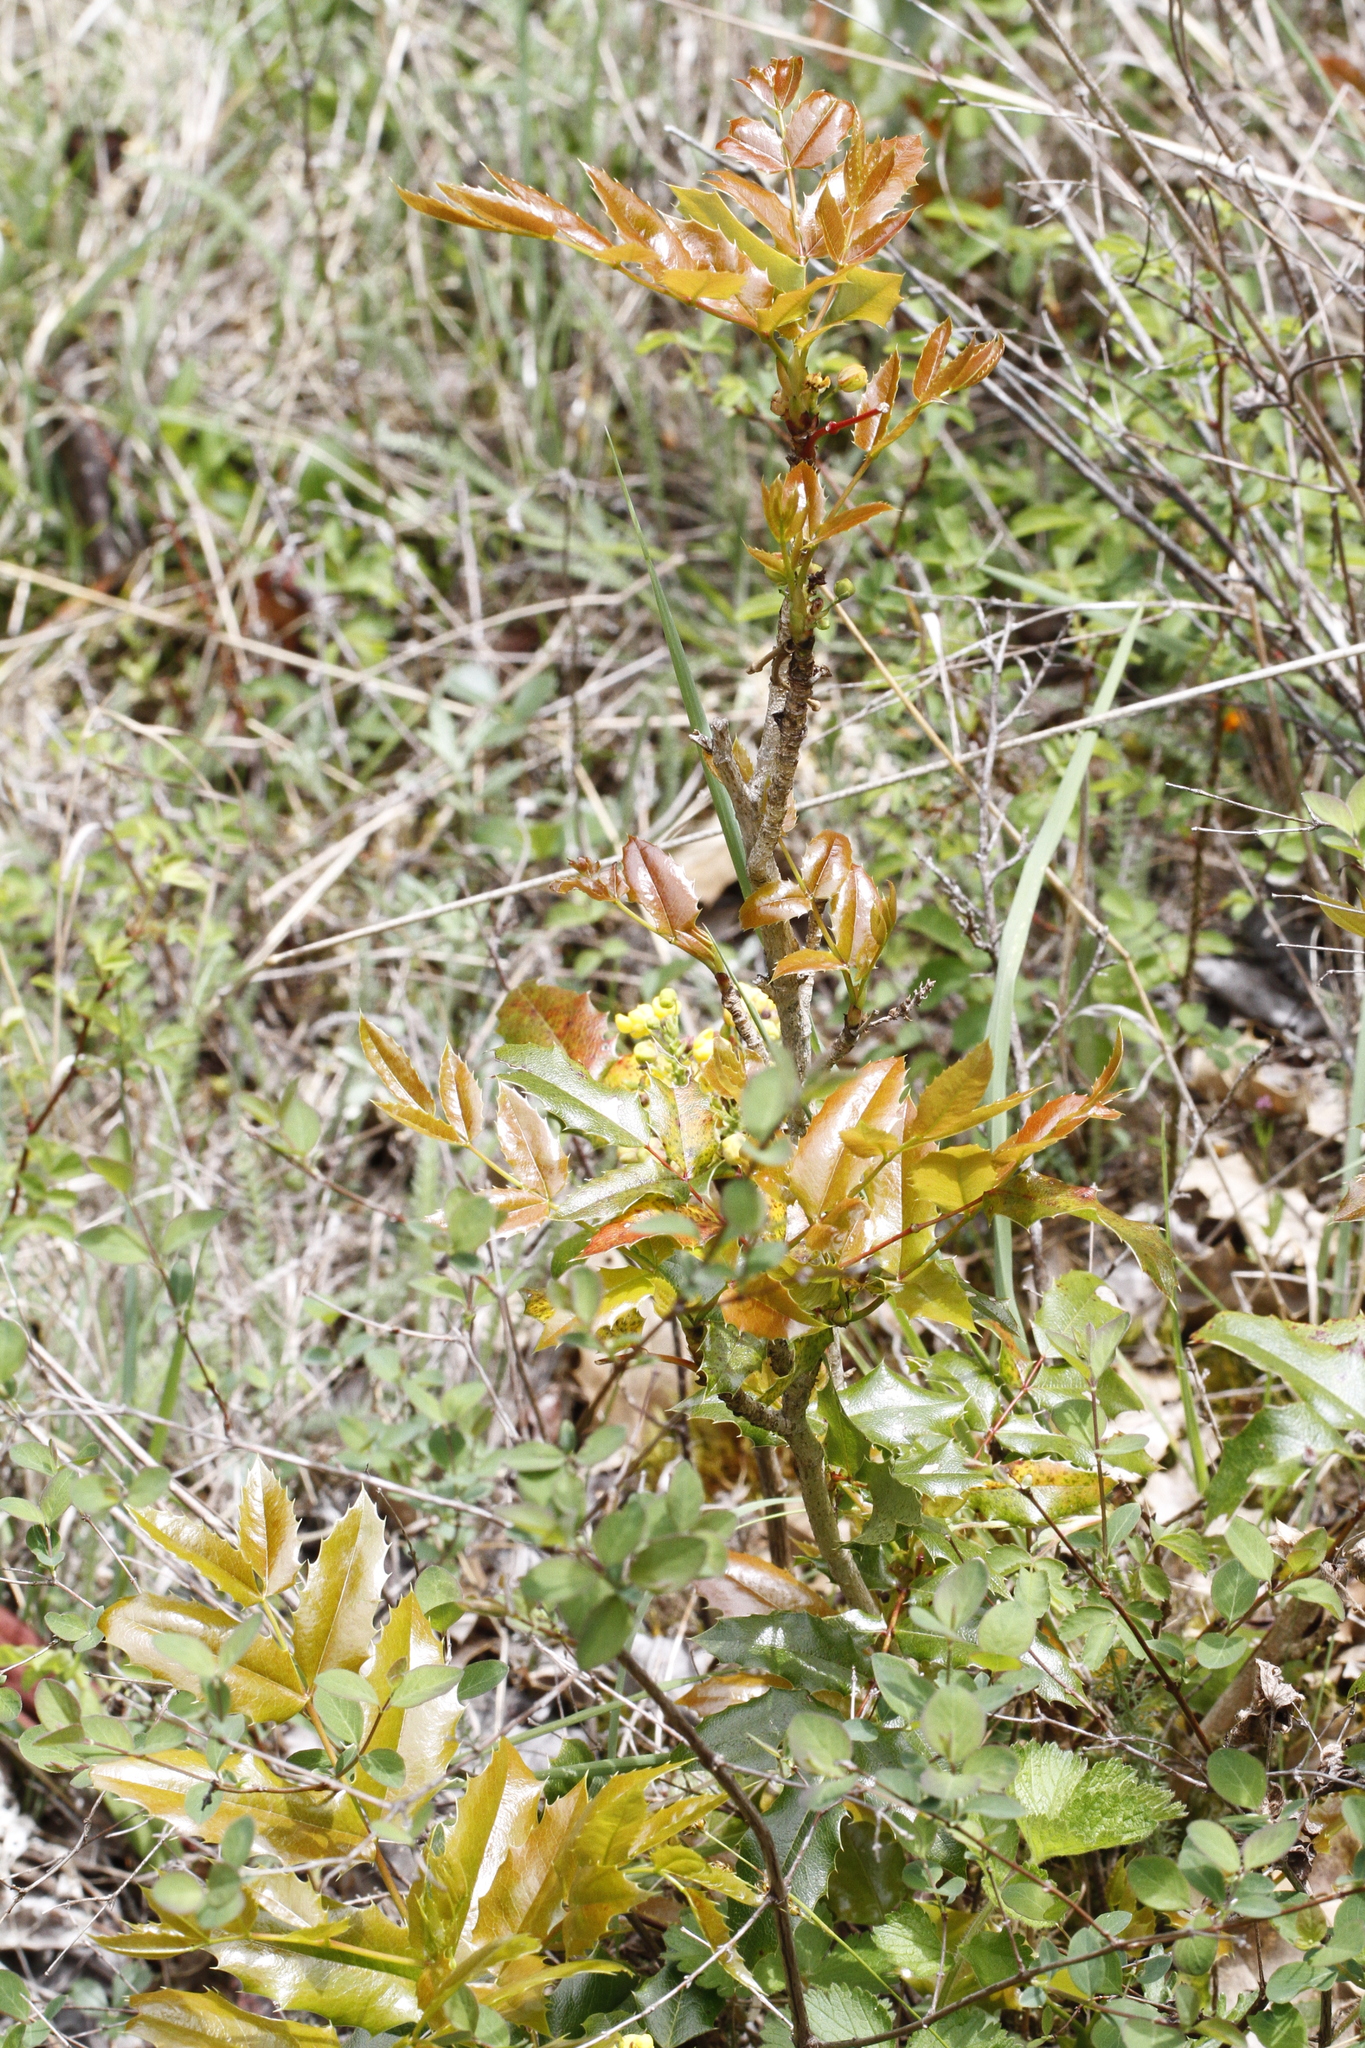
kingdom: Plantae
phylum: Tracheophyta
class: Magnoliopsida
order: Ranunculales
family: Berberidaceae
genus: Mahonia
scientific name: Mahonia aquifolium
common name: Oregon-grape
